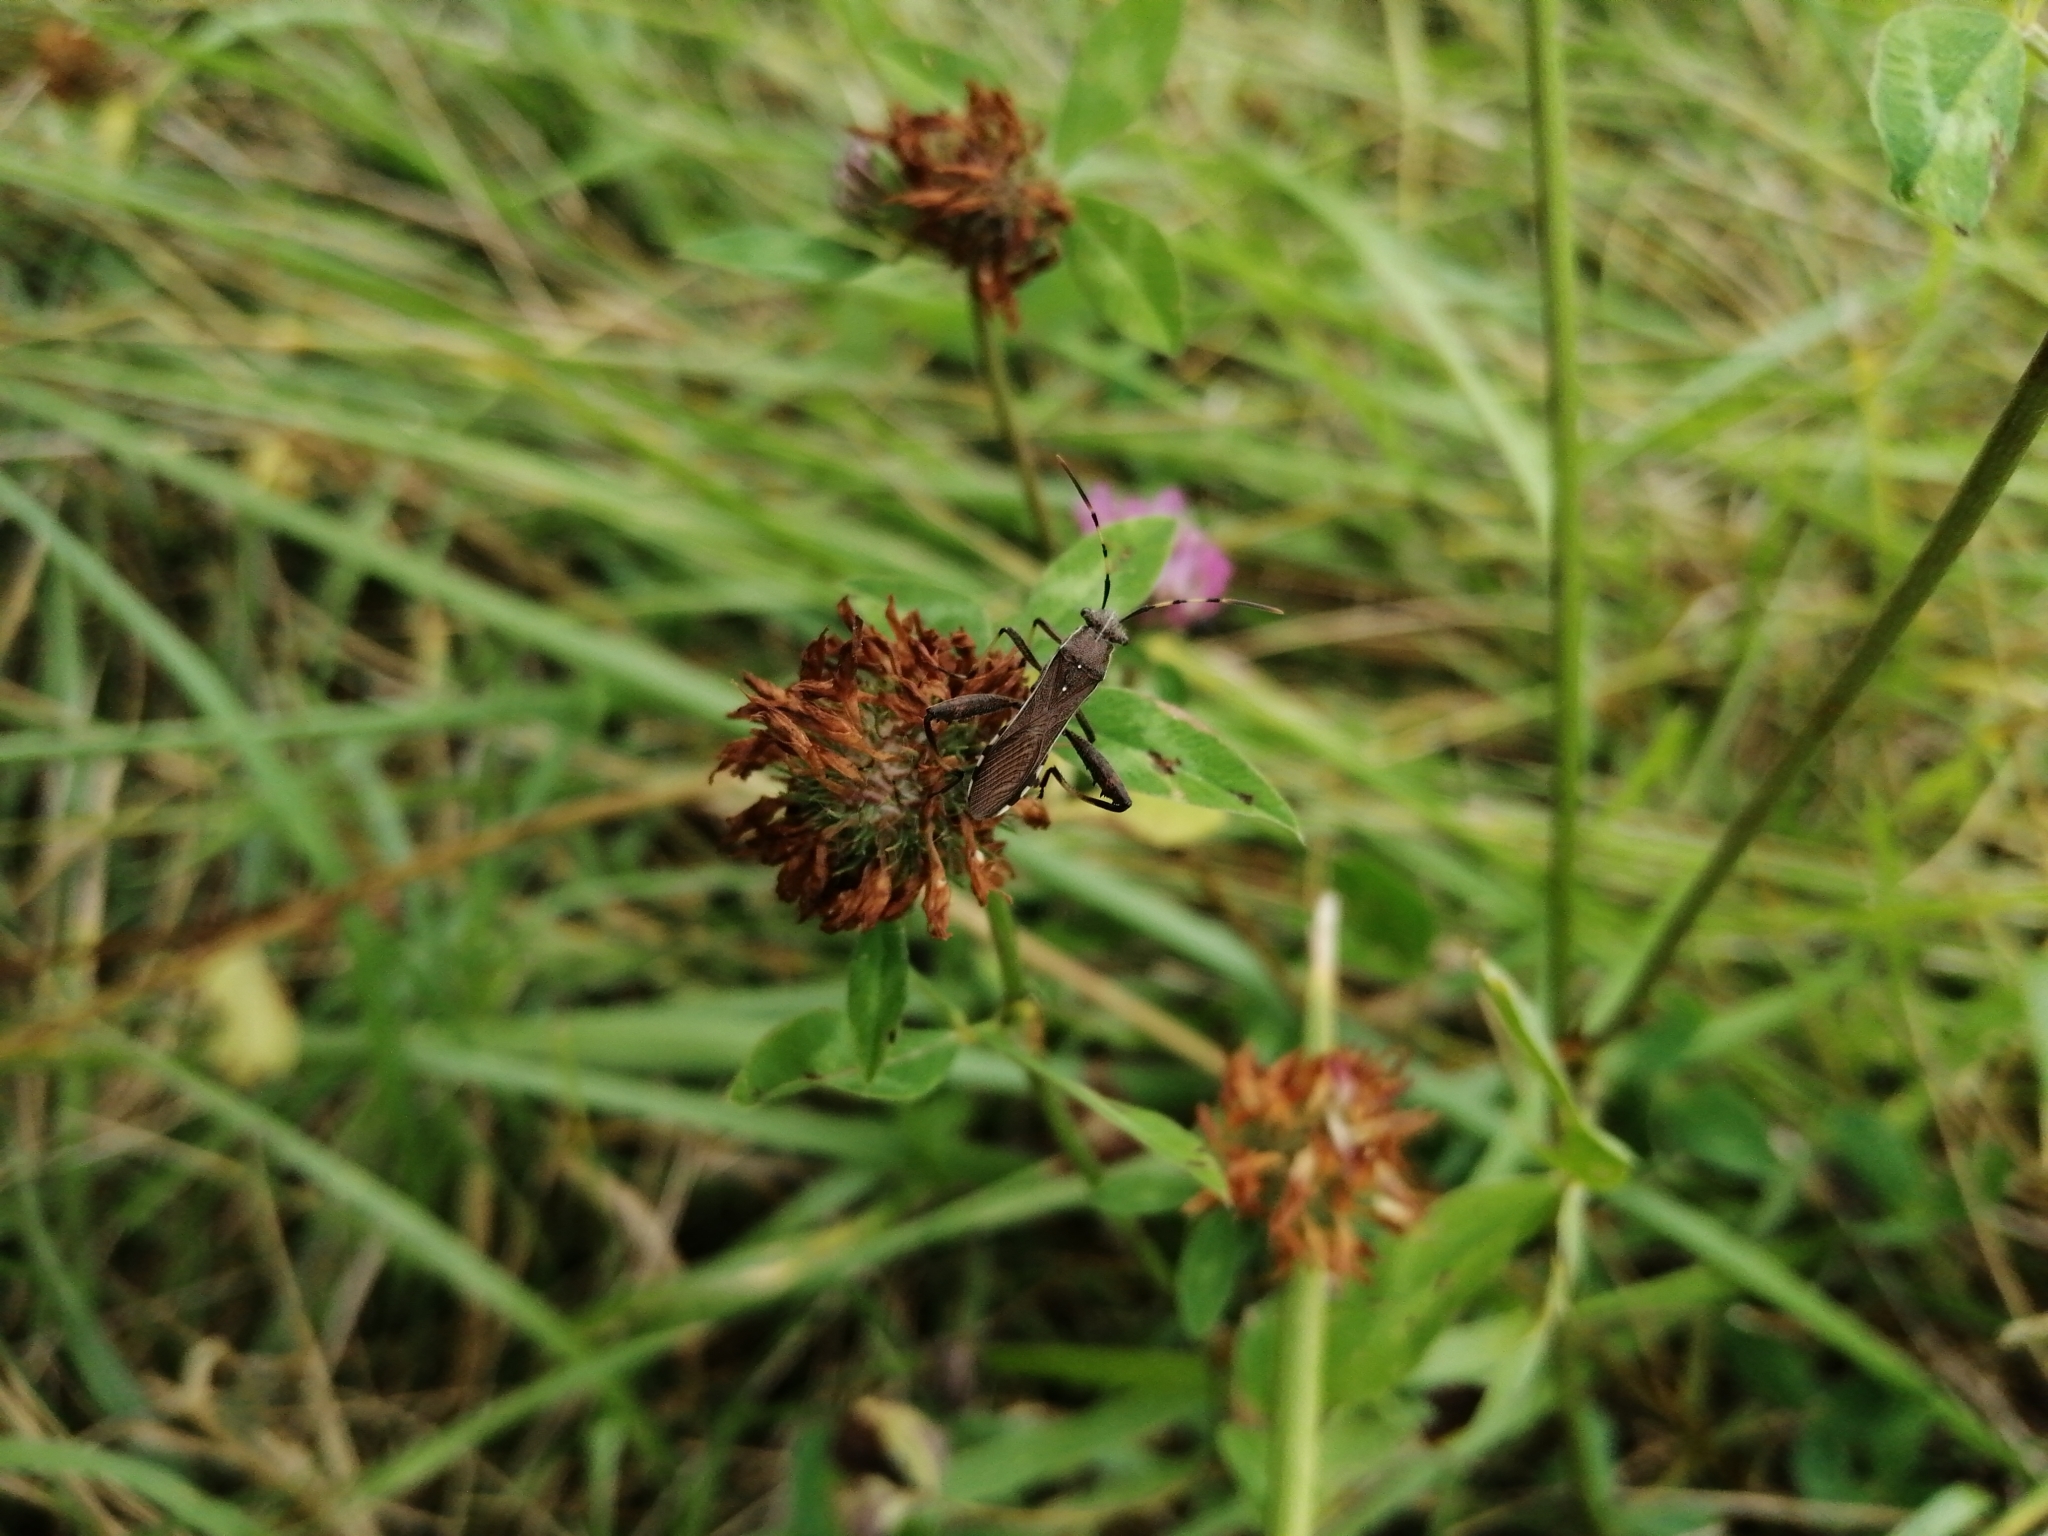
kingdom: Animalia
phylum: Arthropoda
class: Insecta
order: Hemiptera
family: Alydidae
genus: Camptopus
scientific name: Camptopus lateralis
